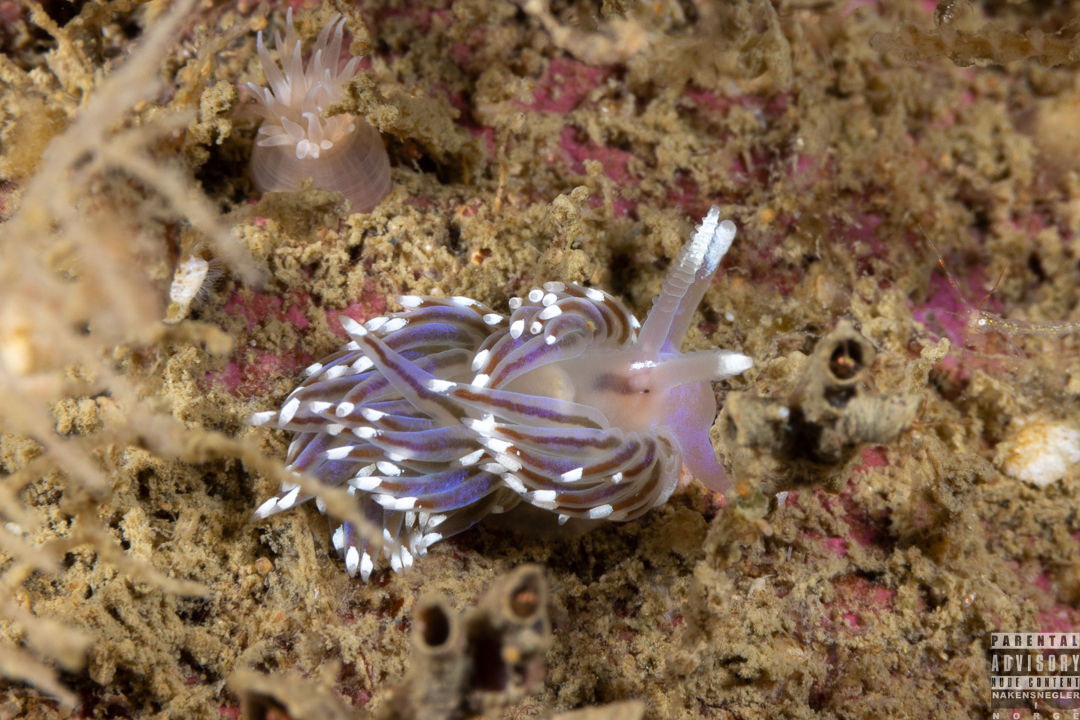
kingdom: Animalia
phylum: Mollusca
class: Gastropoda
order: Nudibranchia
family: Facelinidae
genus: Facelina
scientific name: Facelina bostoniensis
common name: Boston facelina
